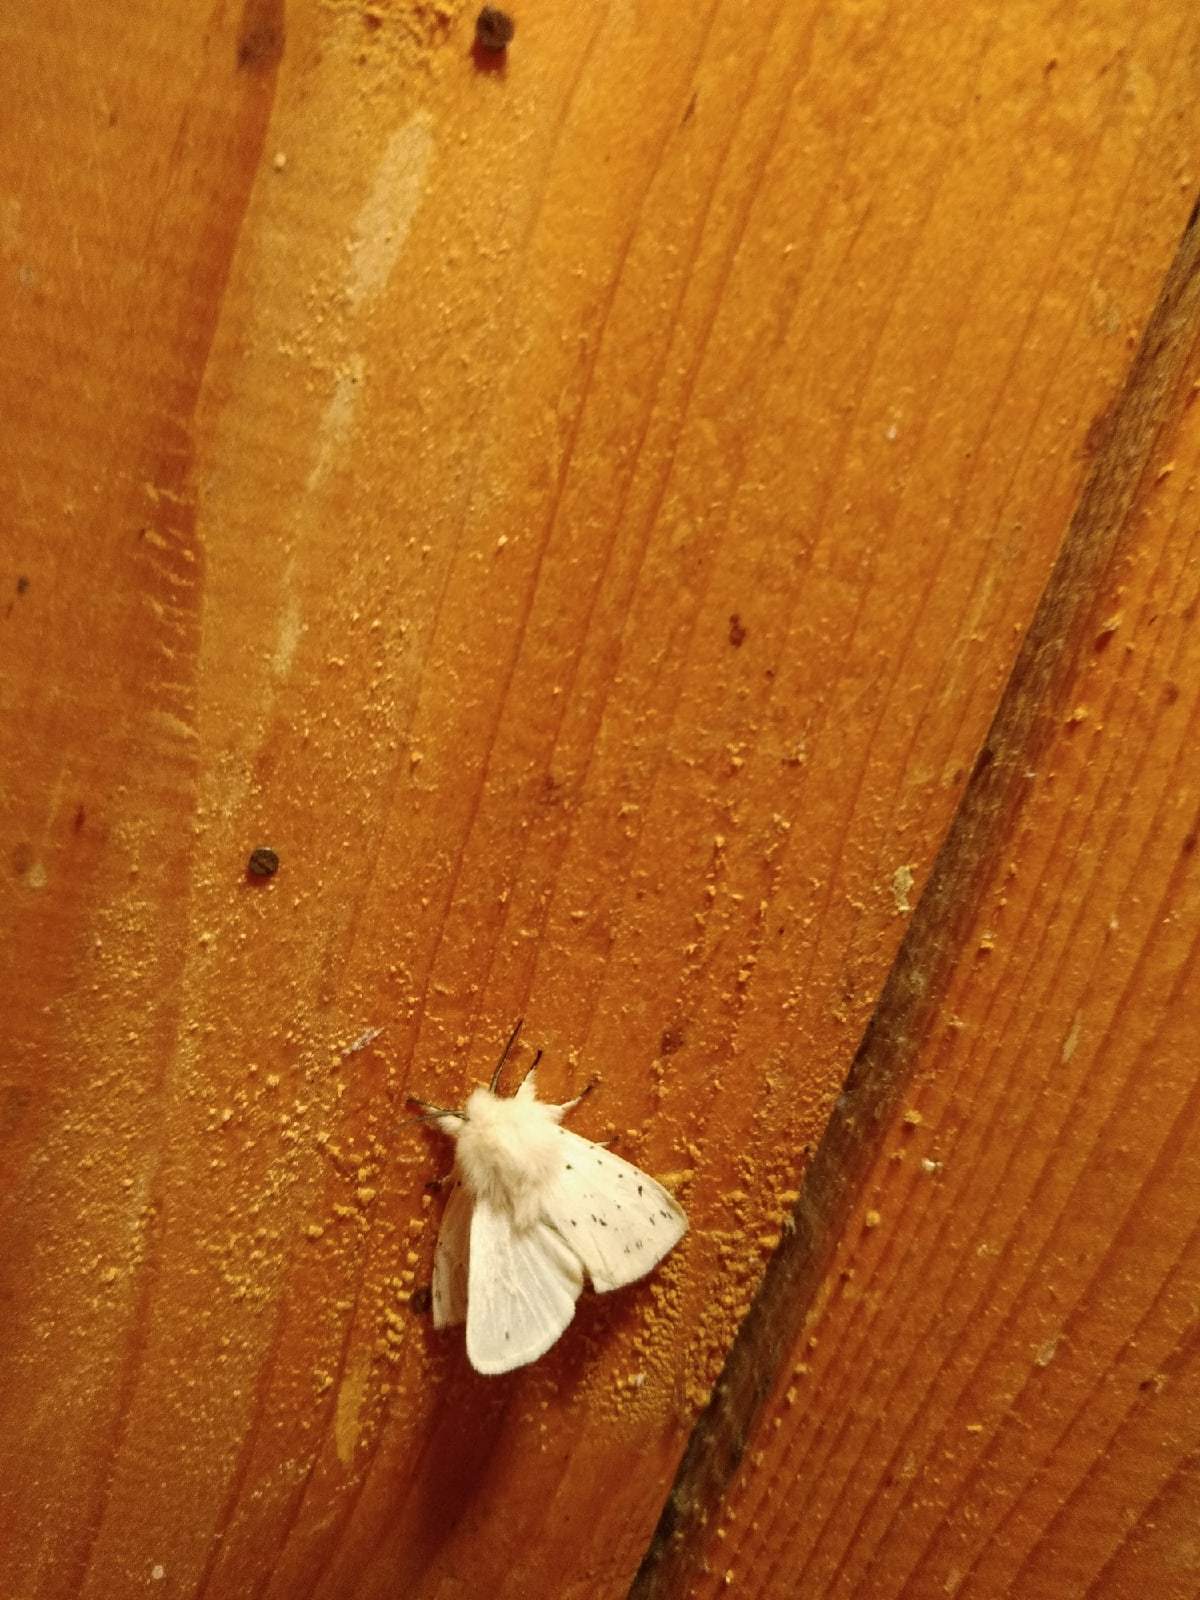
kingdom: Animalia
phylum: Arthropoda
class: Insecta
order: Lepidoptera
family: Erebidae
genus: Spilosoma
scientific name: Spilosoma lubricipeda
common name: White ermine
